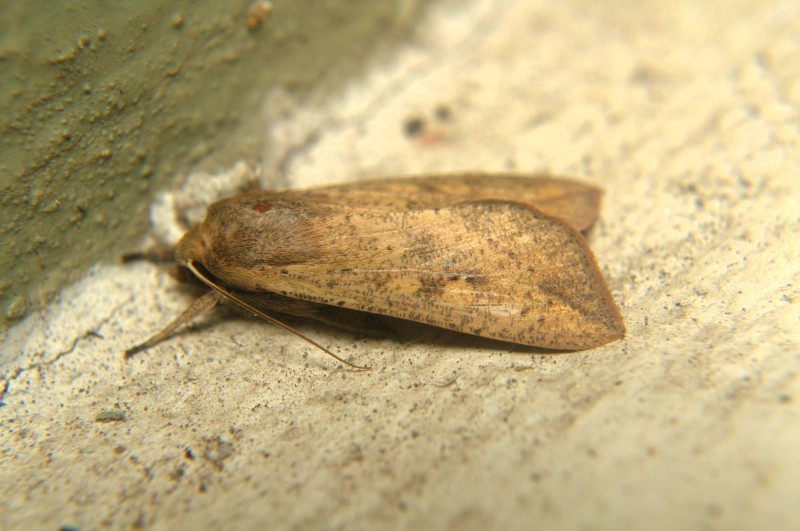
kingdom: Animalia
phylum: Arthropoda
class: Insecta
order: Lepidoptera
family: Noctuidae
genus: Mythimna
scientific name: Mythimna separata
